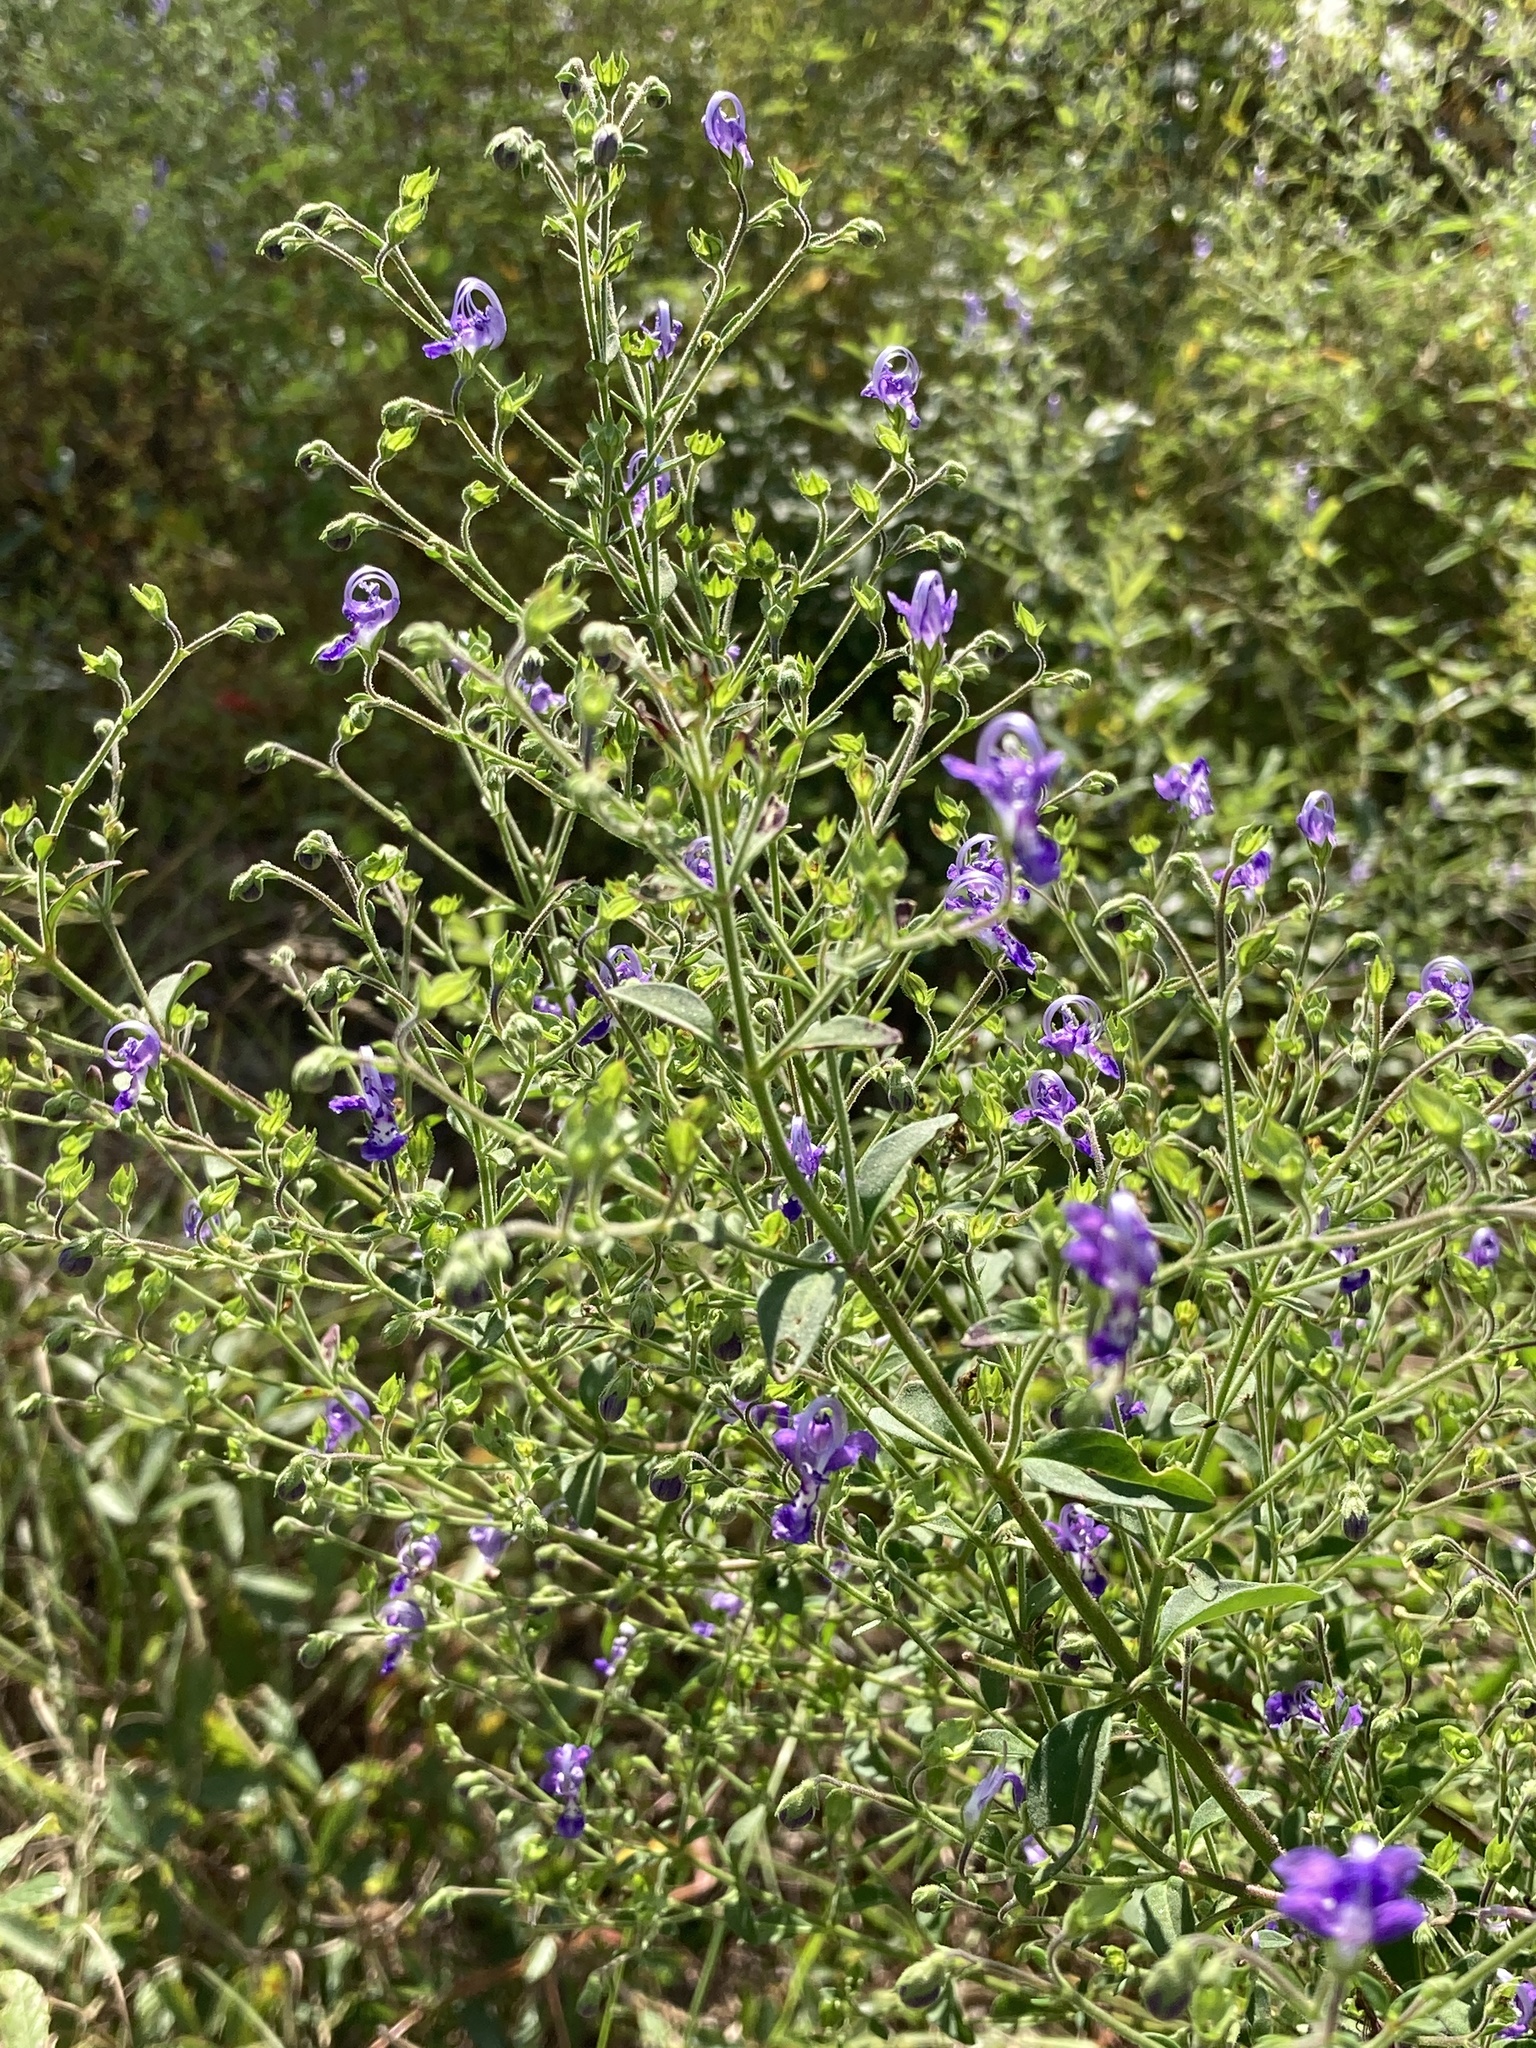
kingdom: Plantae
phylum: Tracheophyta
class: Magnoliopsida
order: Lamiales
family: Lamiaceae
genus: Trichostema
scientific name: Trichostema dichotomum
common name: Bastard pennyroyal
